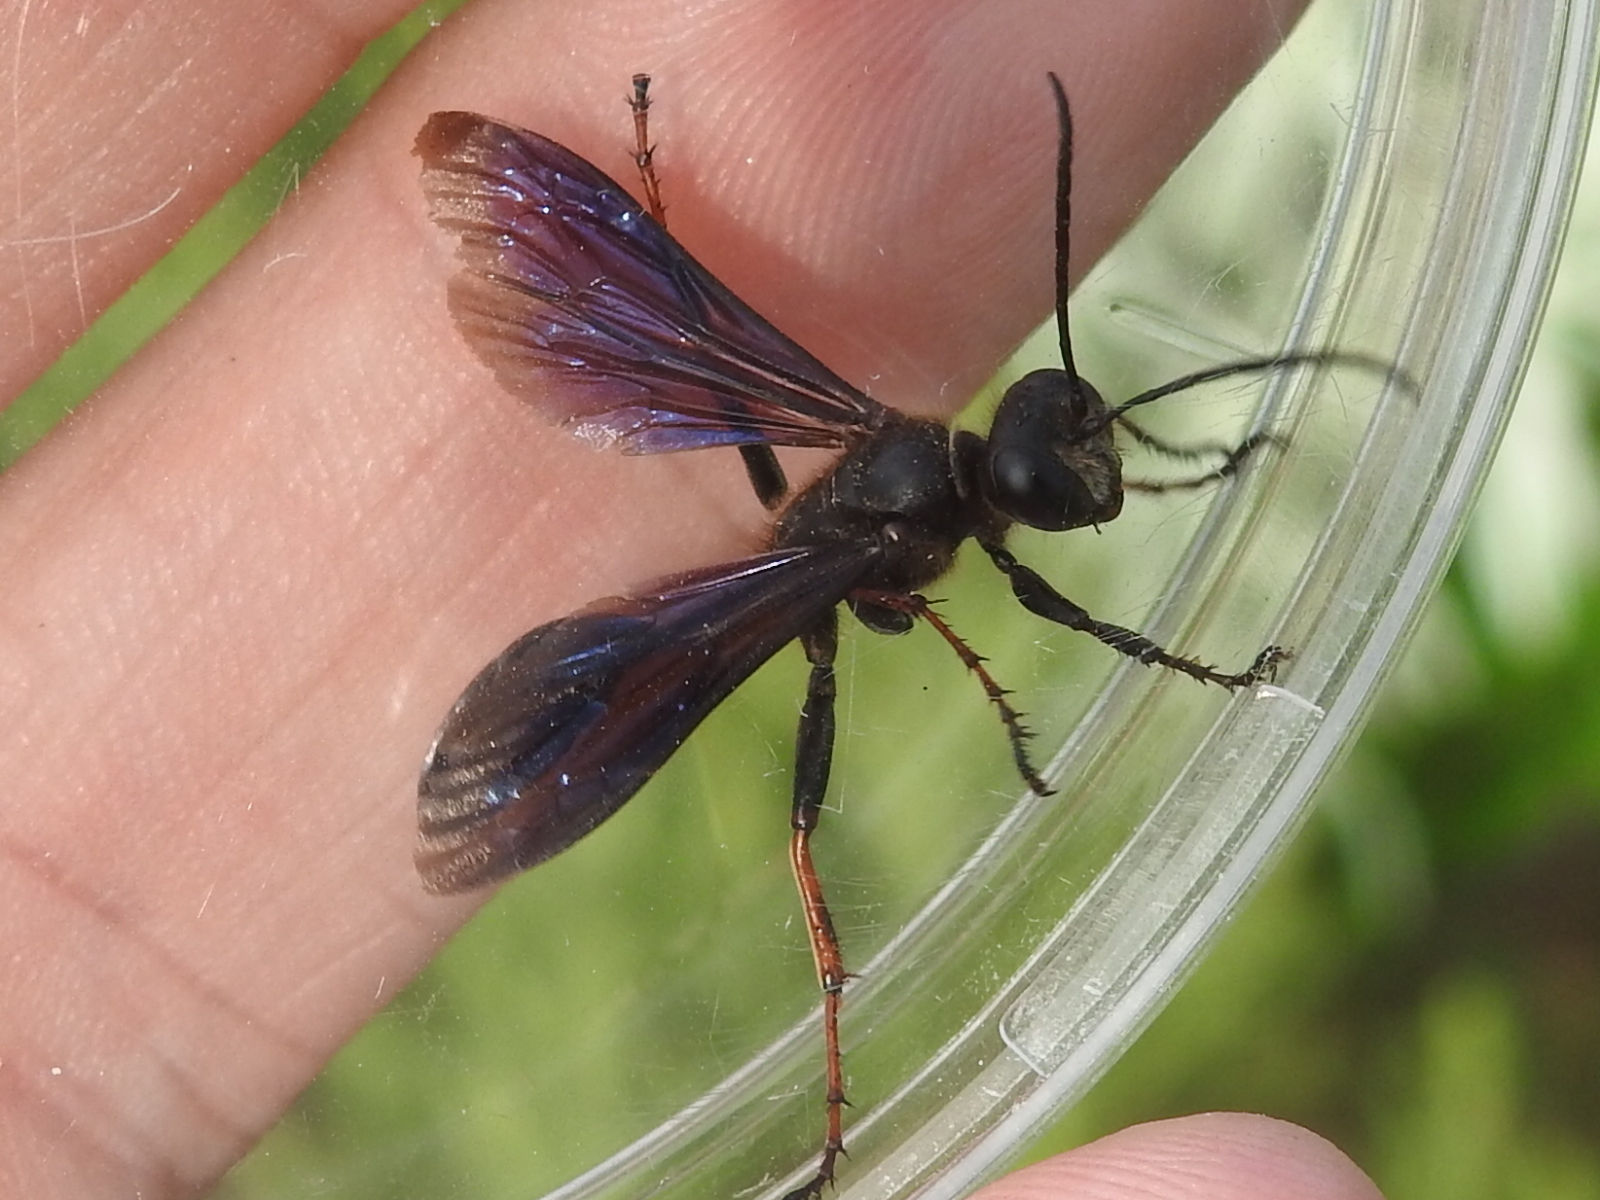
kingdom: Animalia
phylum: Arthropoda
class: Insecta
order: Hymenoptera
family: Sphecidae
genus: Isodontia
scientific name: Isodontia auripes
